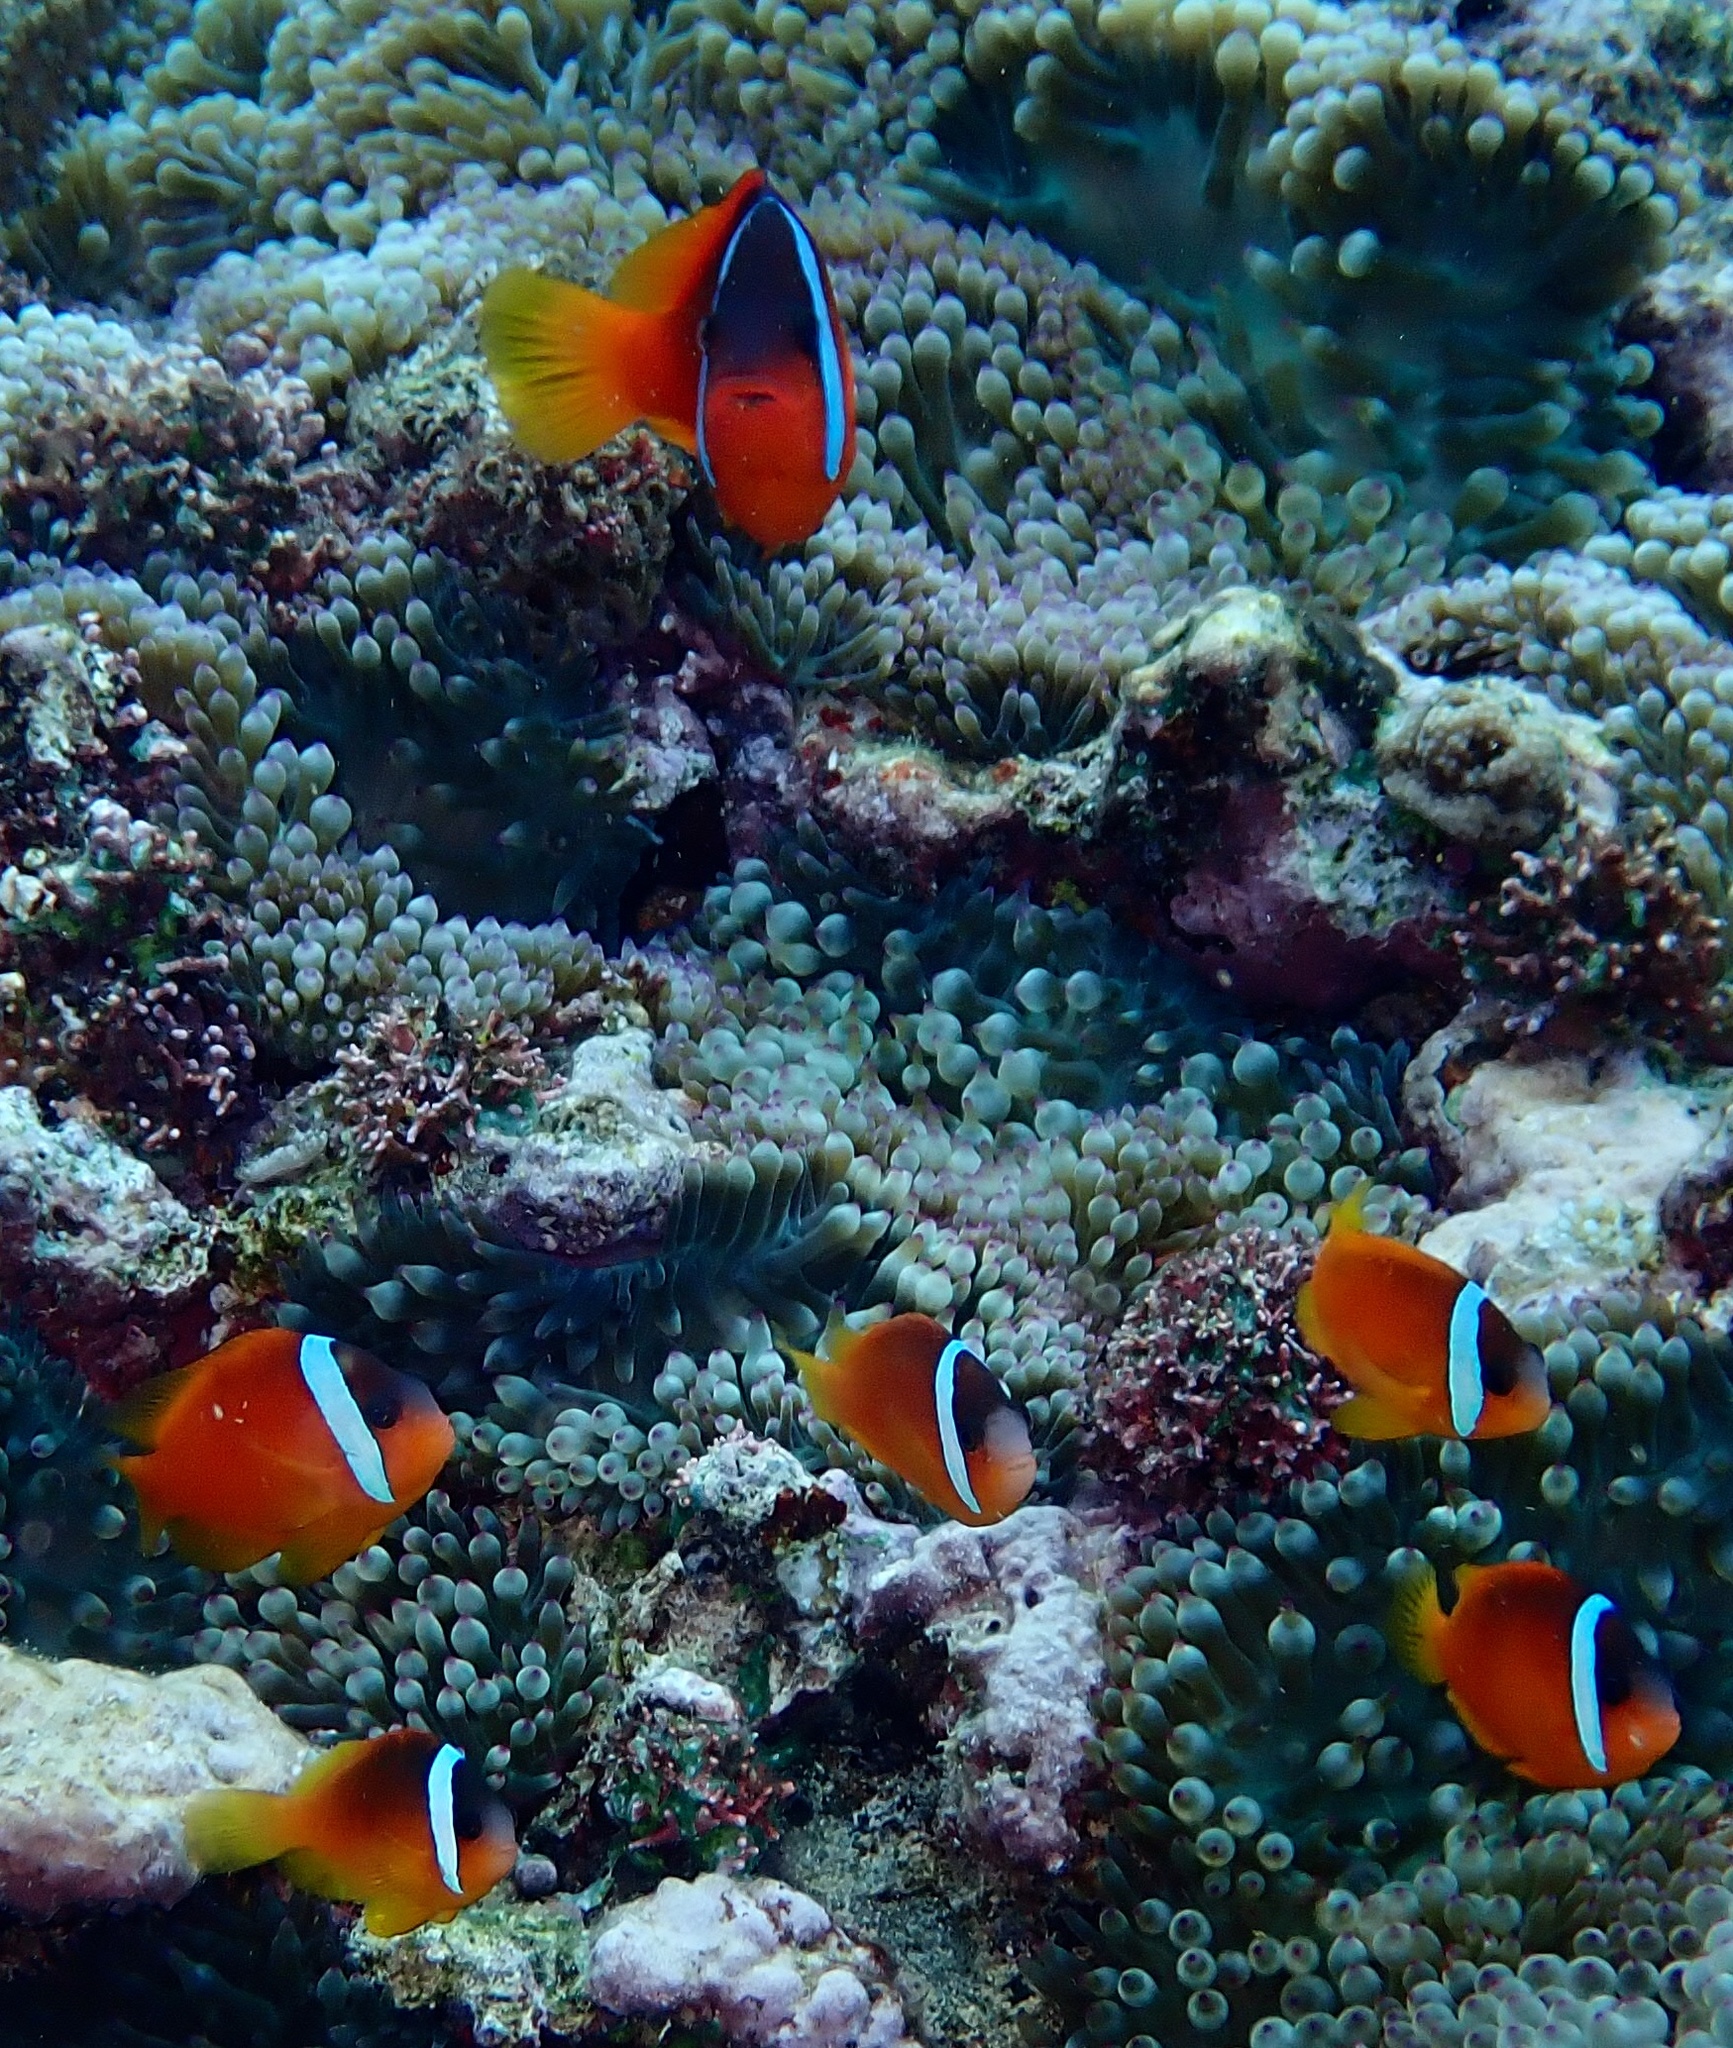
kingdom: Animalia
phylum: Chordata
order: Perciformes
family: Pomacentridae
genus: Amphiprion
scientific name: Amphiprion barberi
